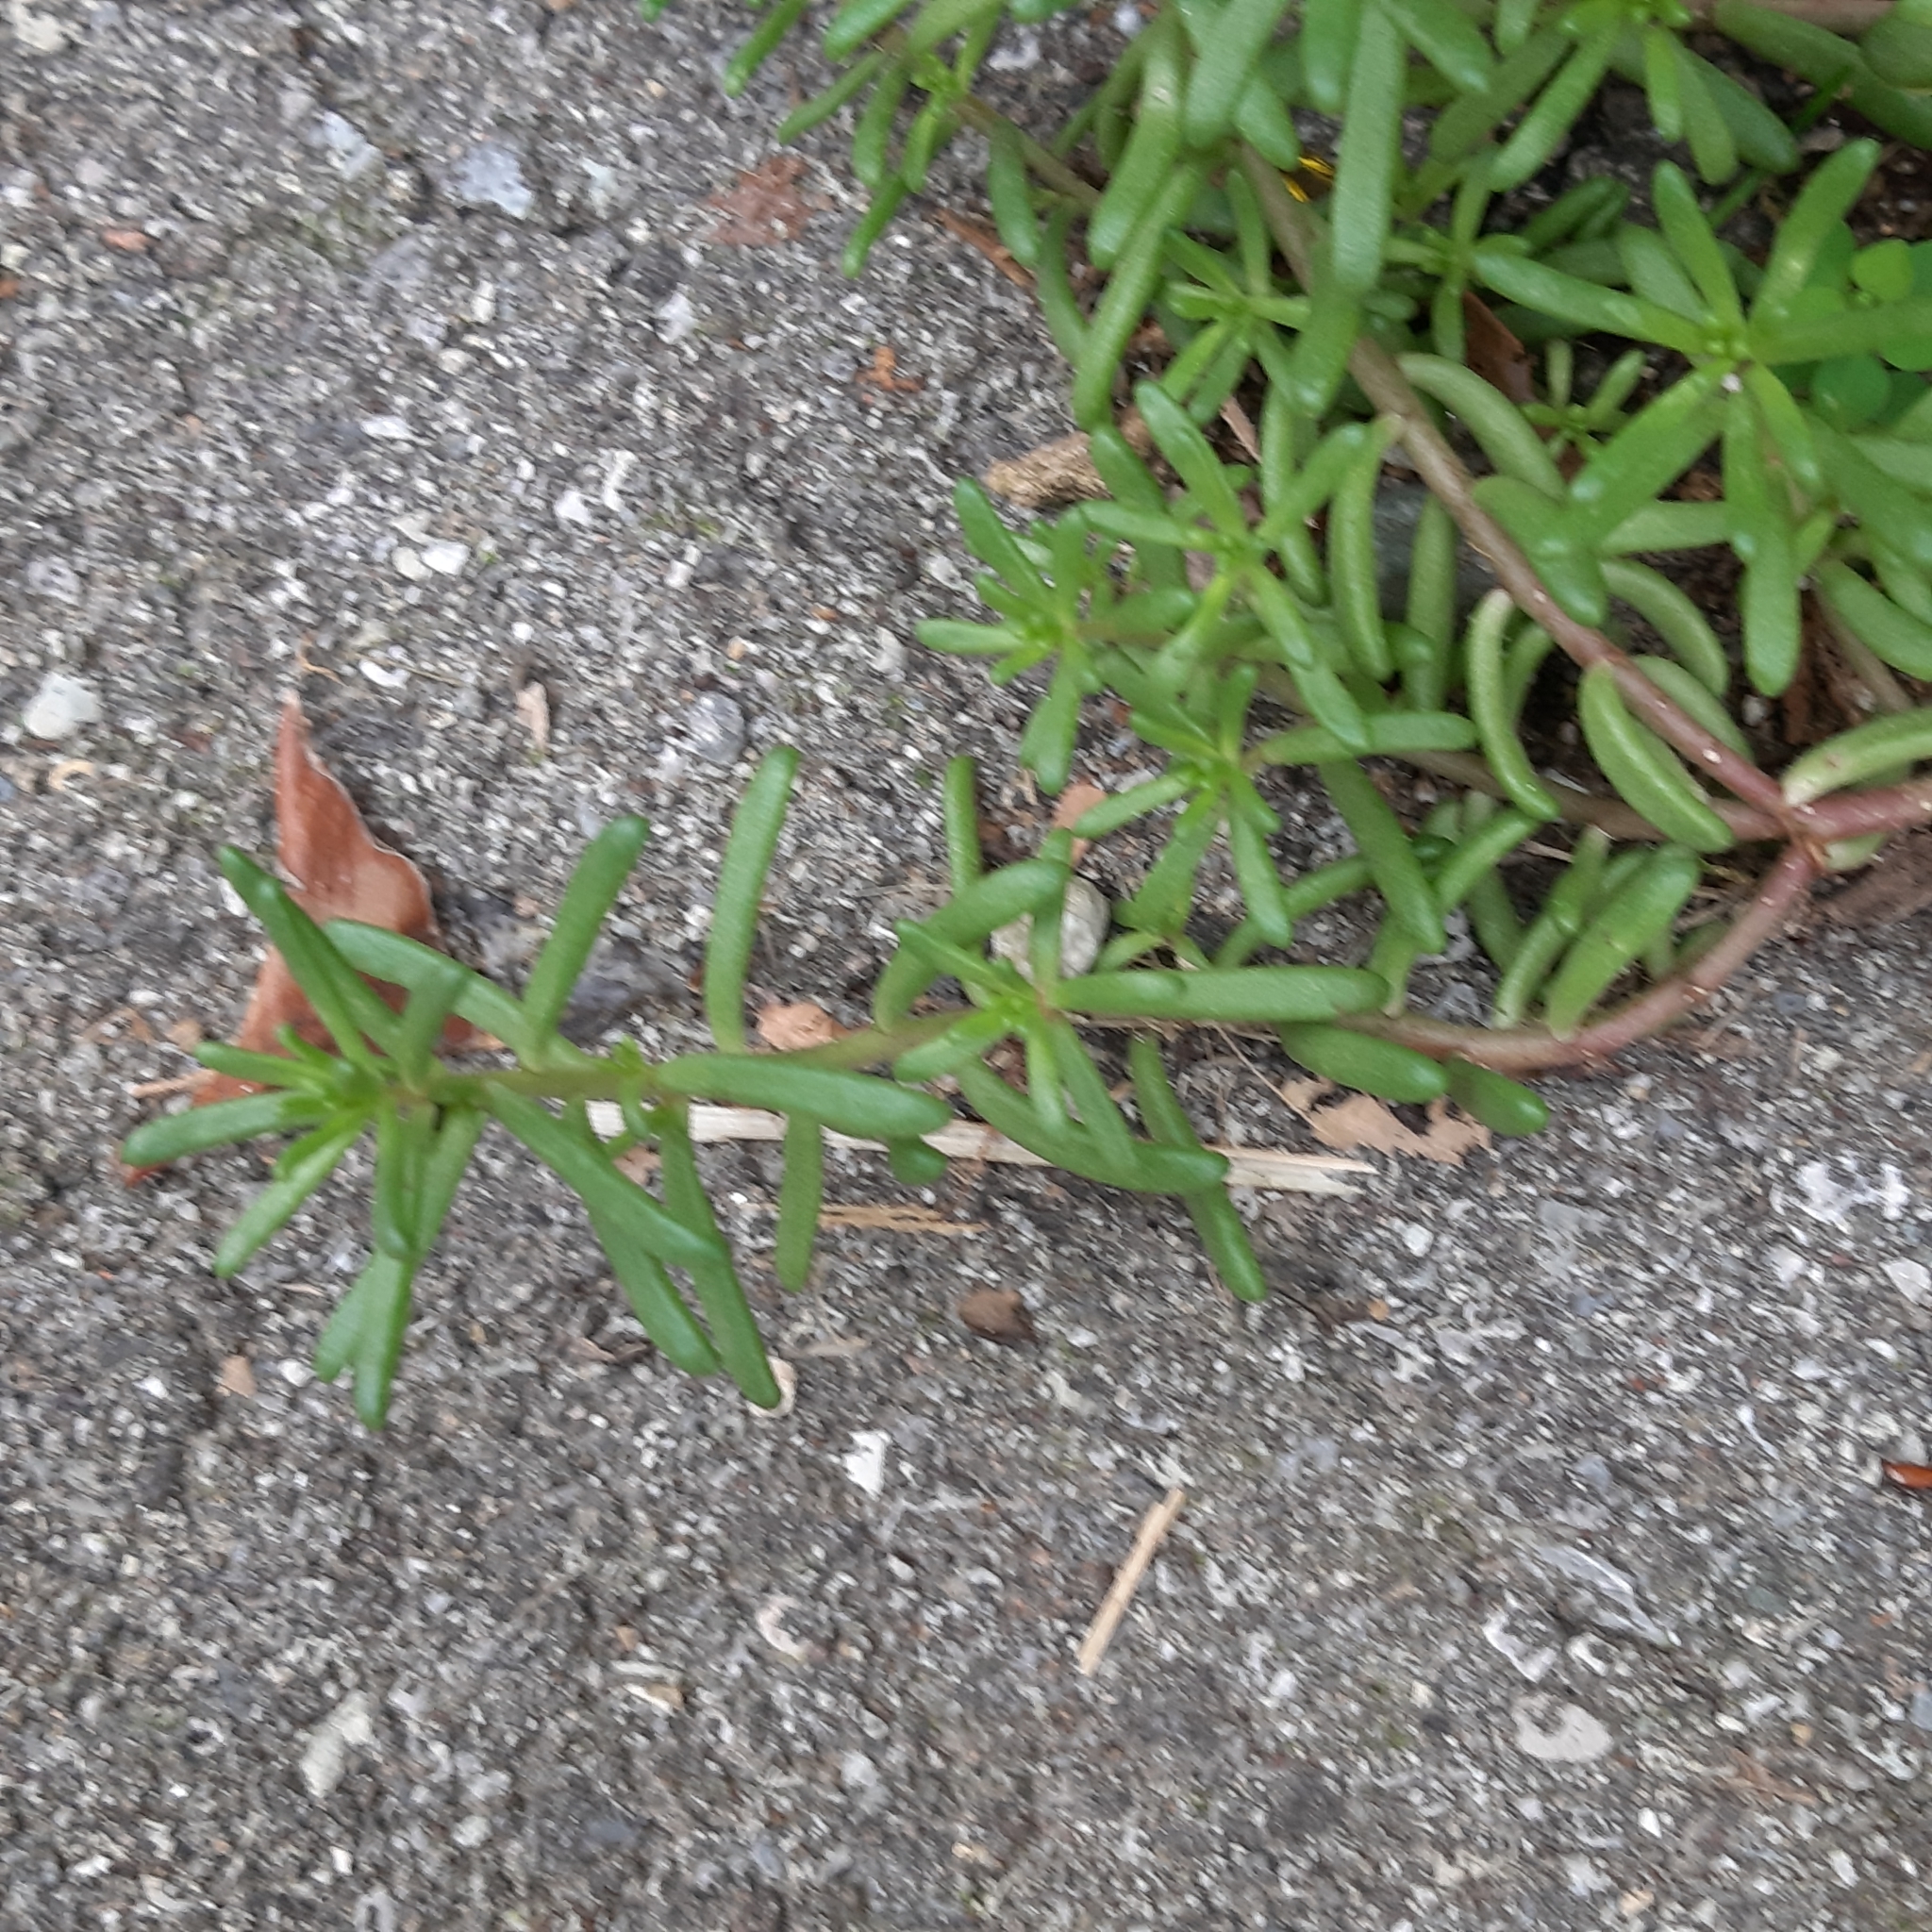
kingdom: Plantae
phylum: Tracheophyta
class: Magnoliopsida
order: Saxifragales
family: Crassulaceae
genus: Sedum
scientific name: Sedum album
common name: White stonecrop
